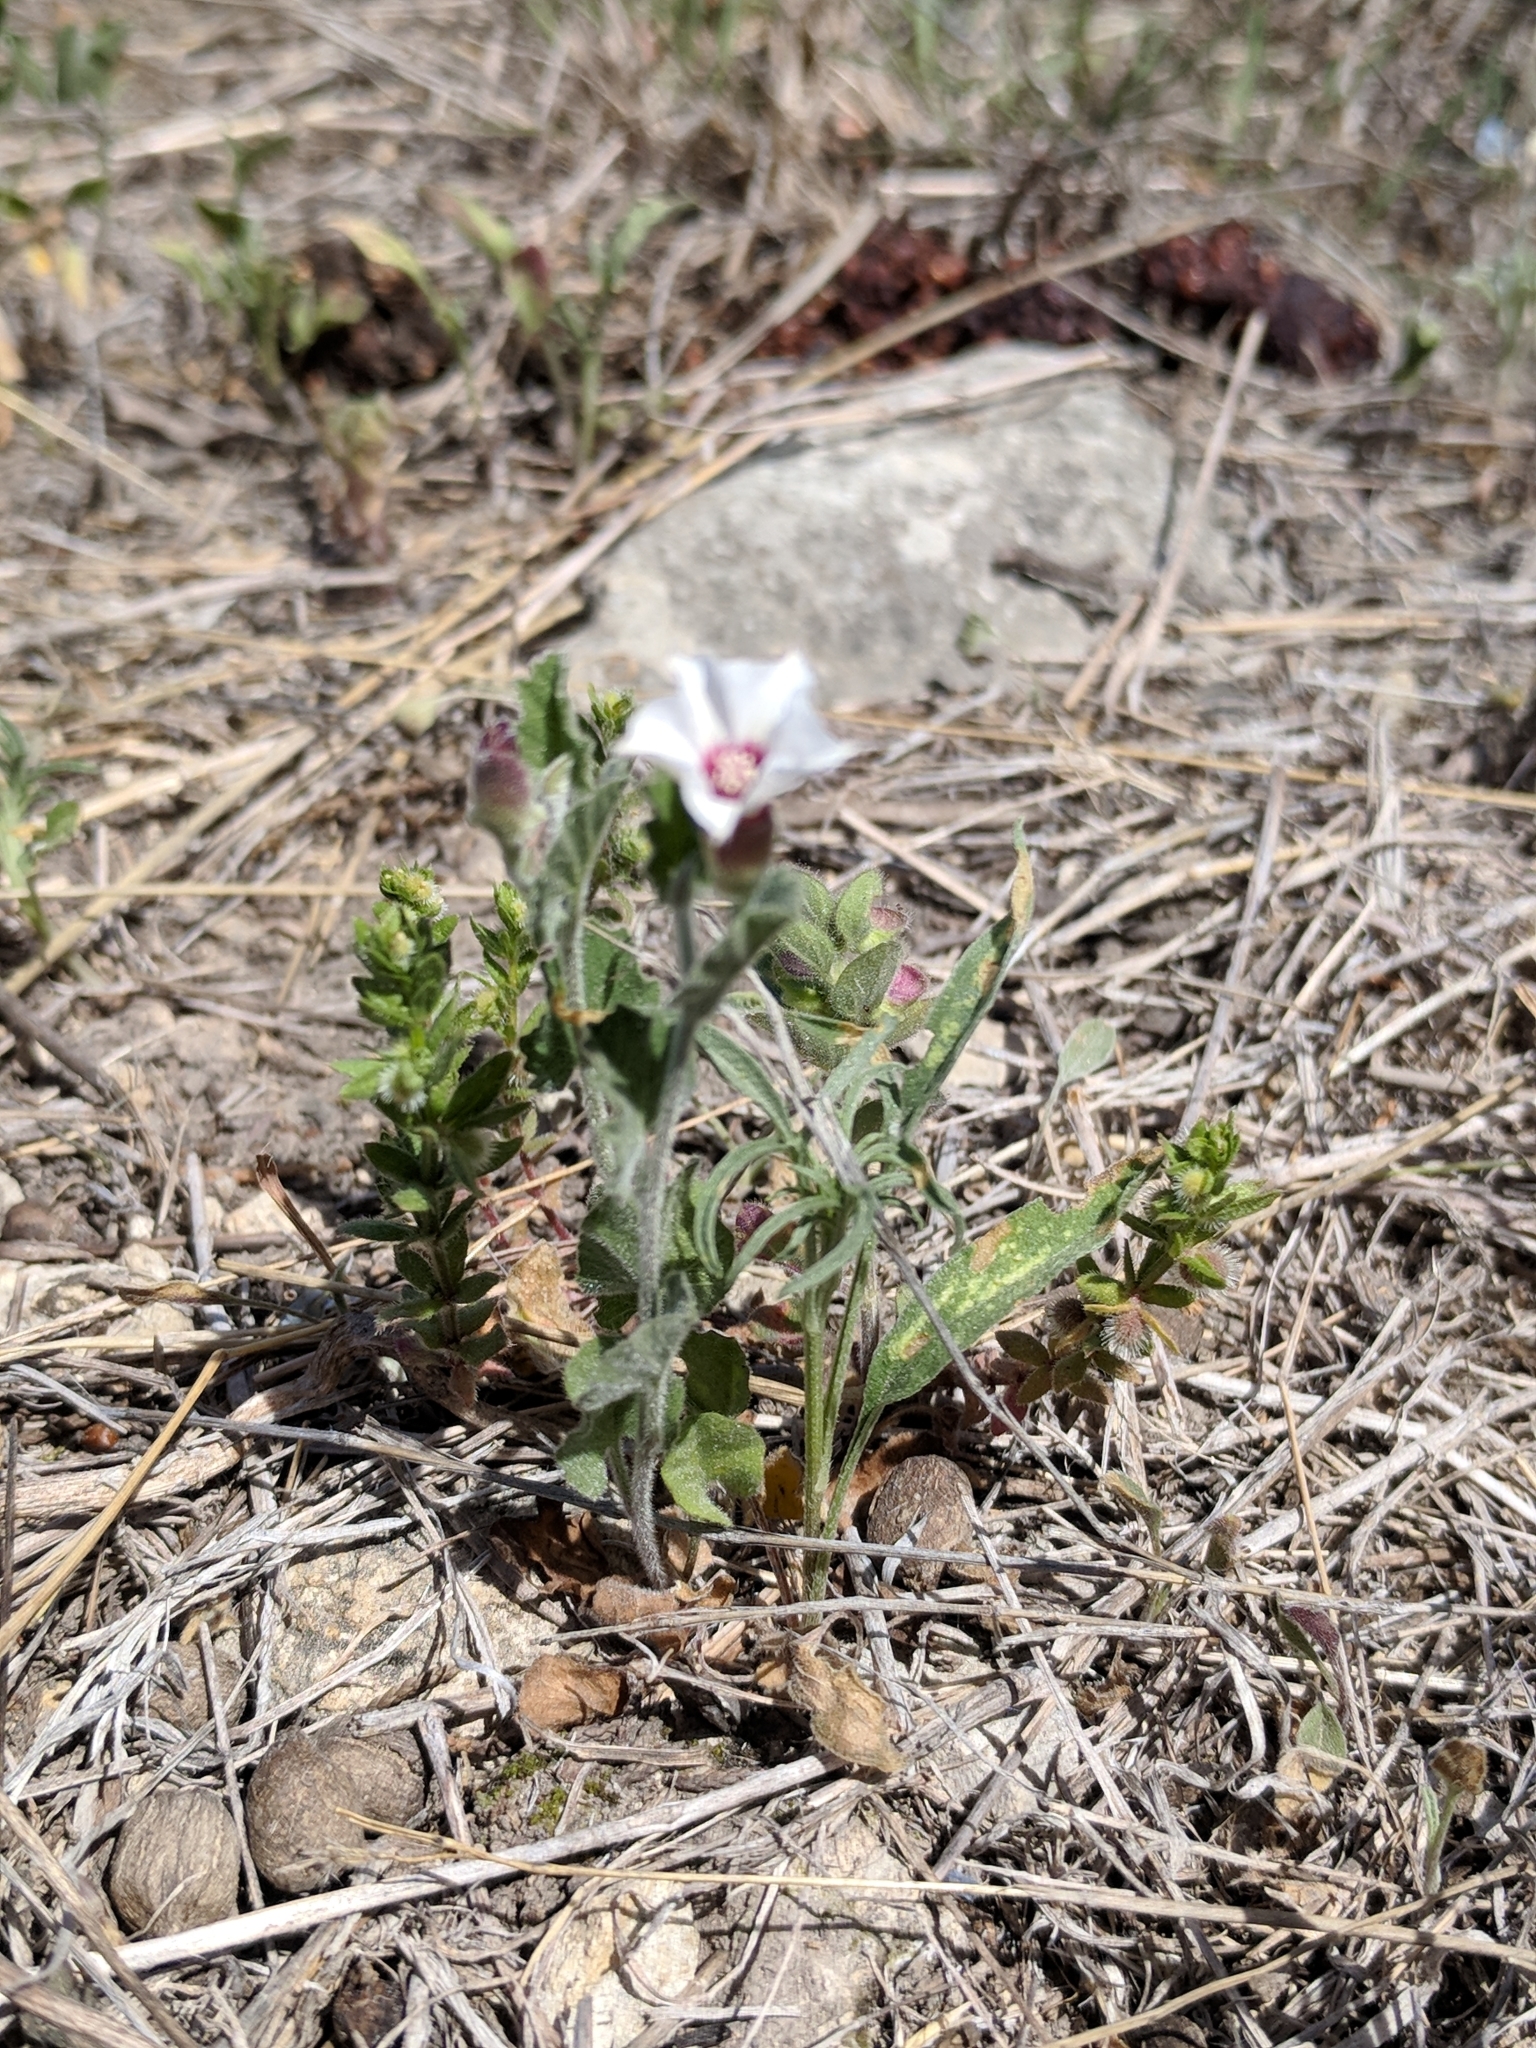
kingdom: Plantae
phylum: Tracheophyta
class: Magnoliopsida
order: Solanales
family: Convolvulaceae
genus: Convolvulus
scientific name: Convolvulus equitans
